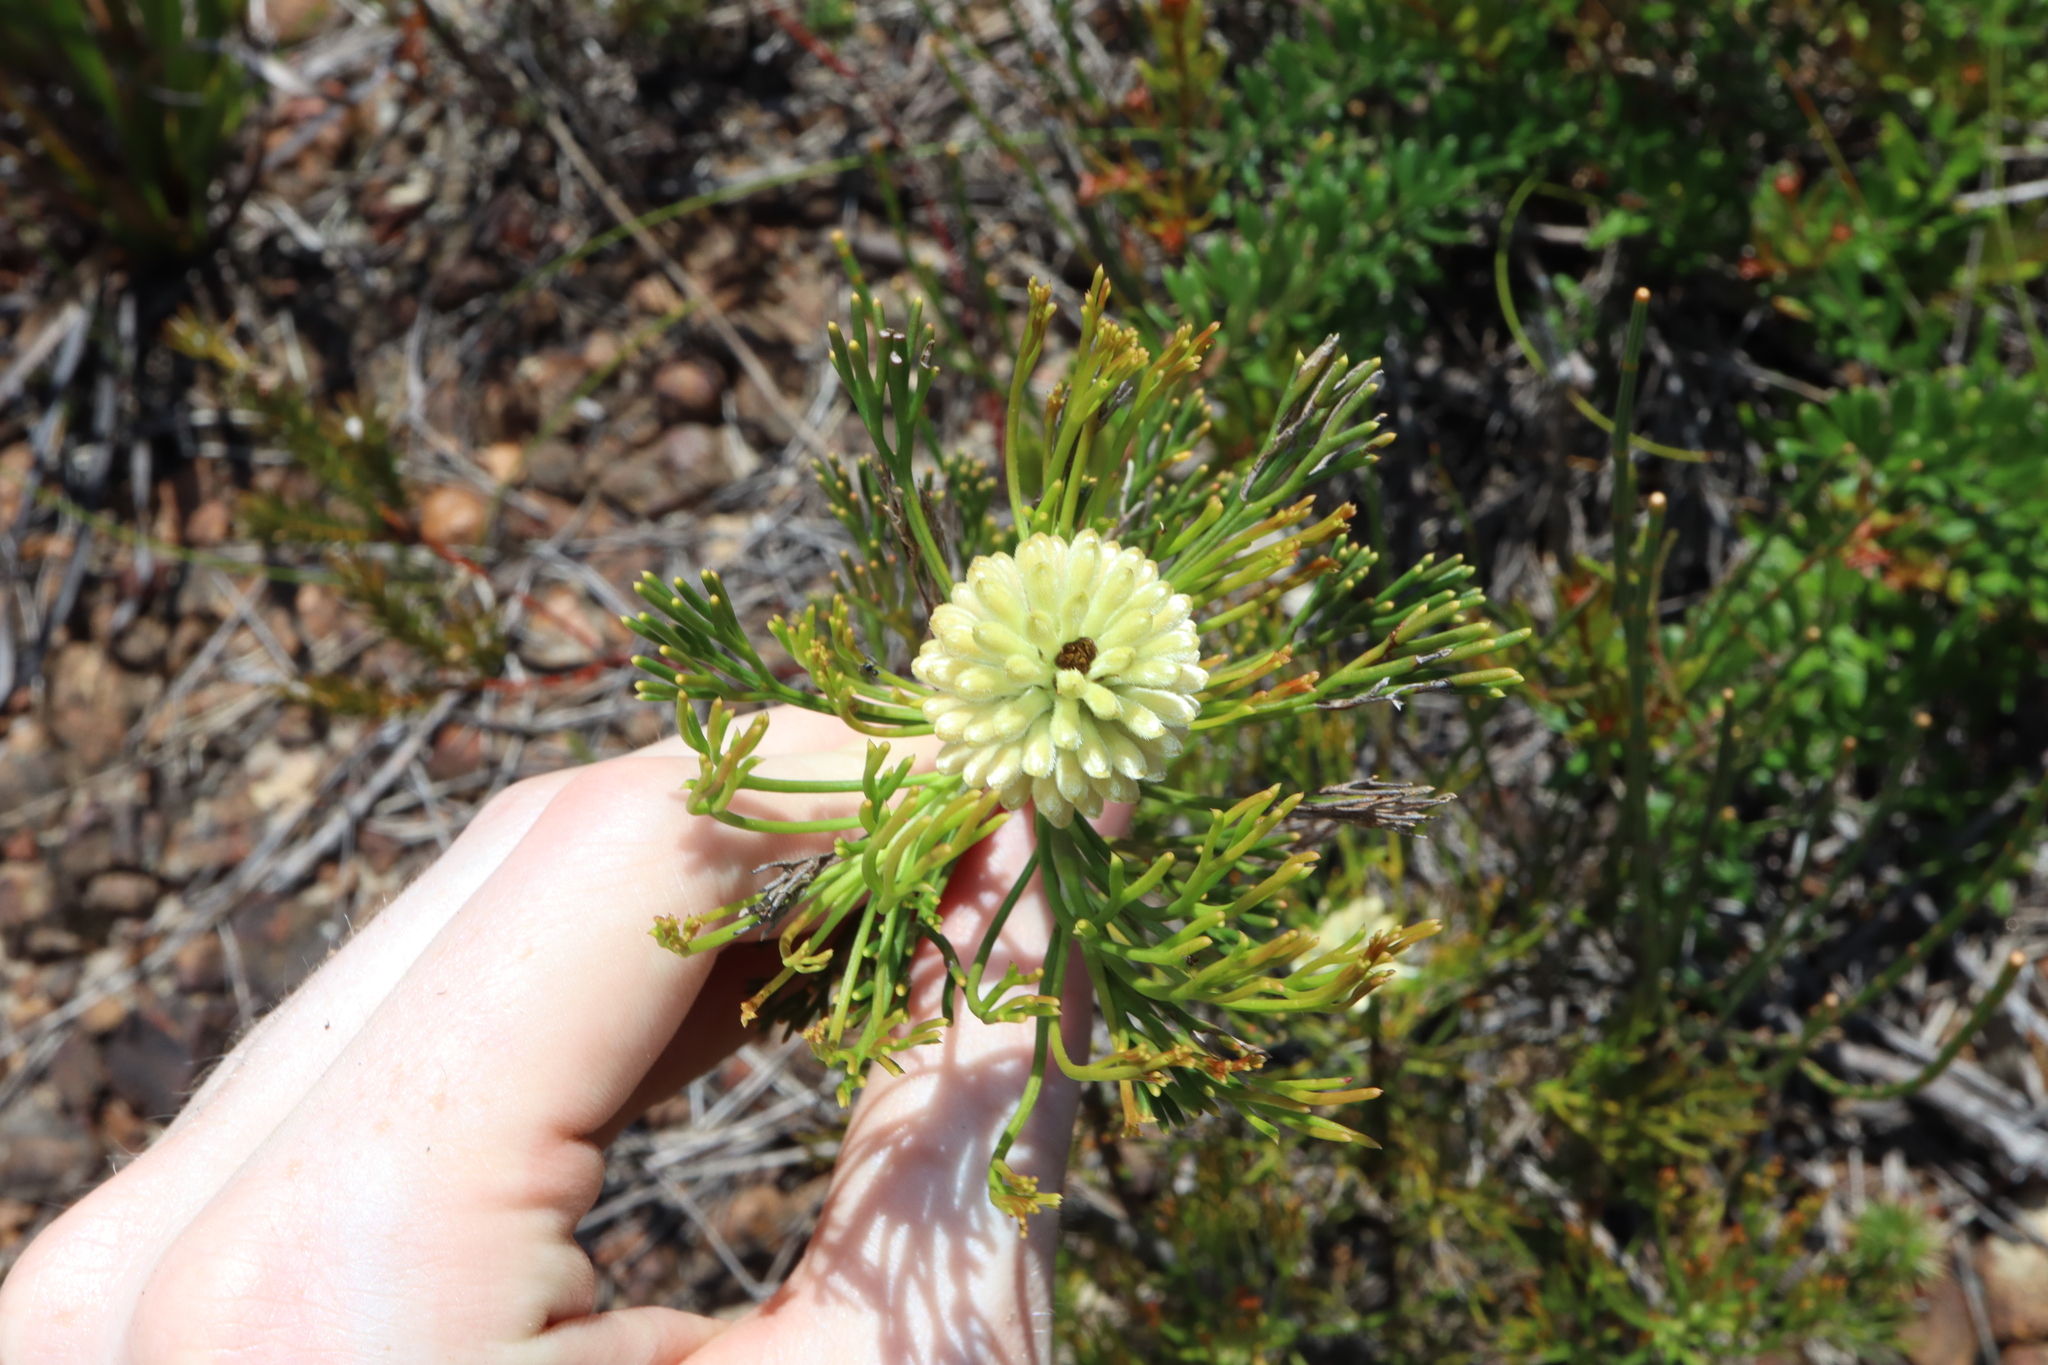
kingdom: Plantae
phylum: Tracheophyta
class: Magnoliopsida
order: Proteales
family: Proteaceae
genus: Petrophile
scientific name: Petrophile pulchella
